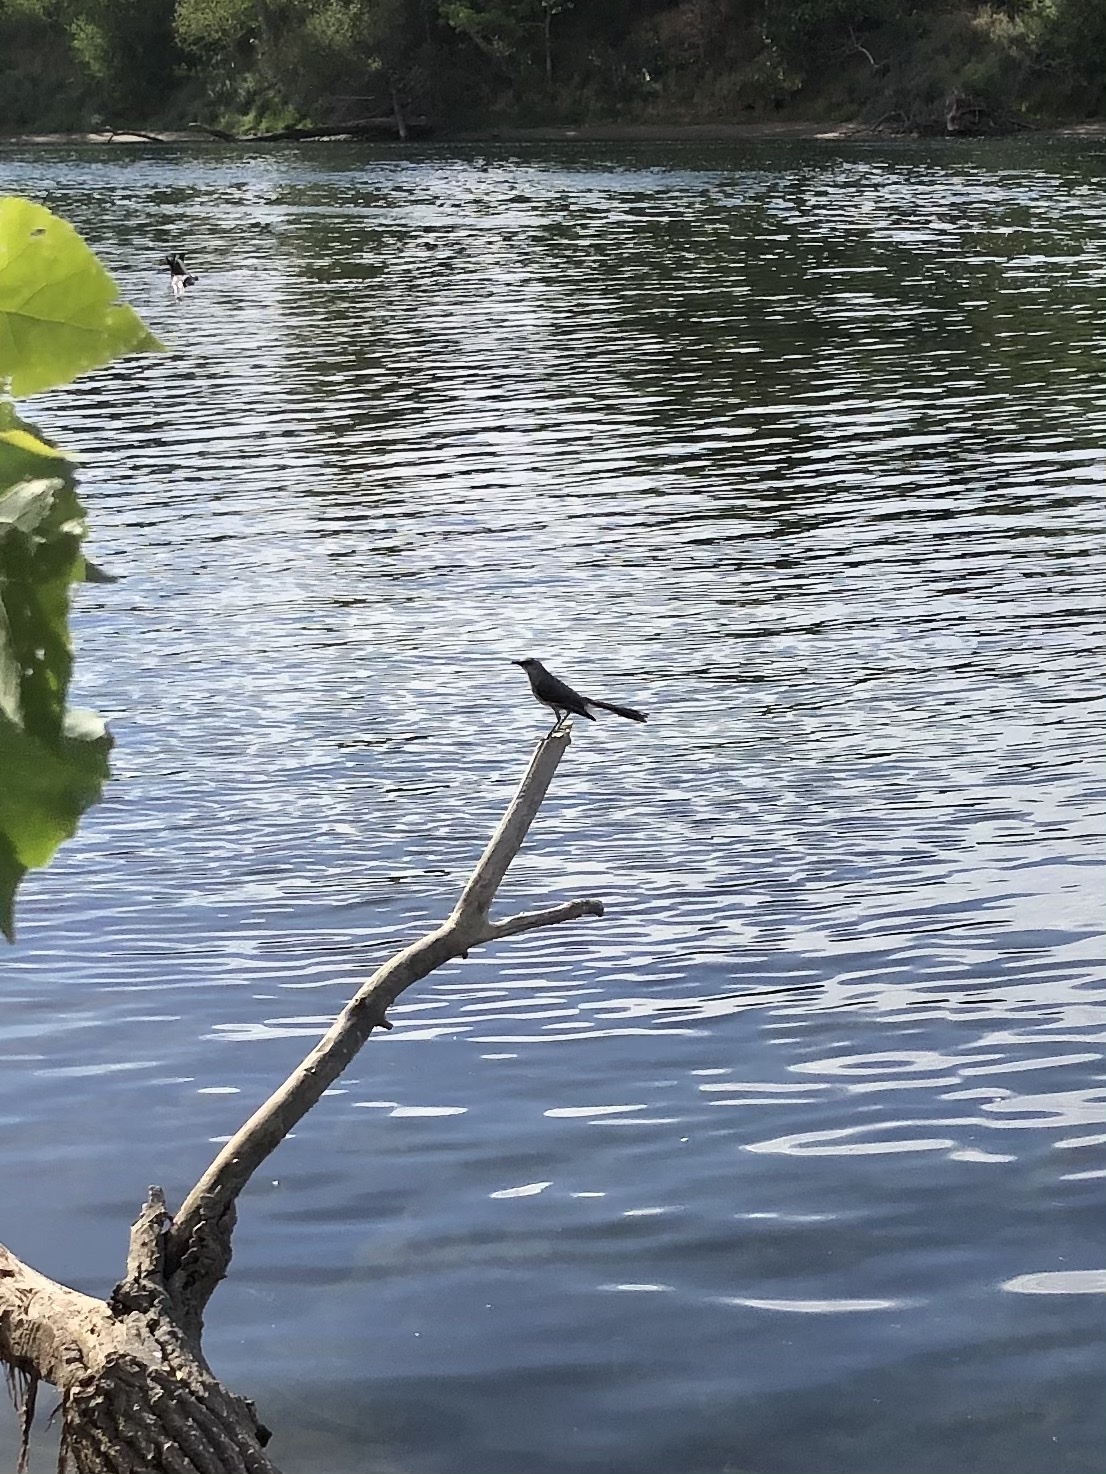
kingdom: Animalia
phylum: Chordata
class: Aves
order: Passeriformes
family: Mimidae
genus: Mimus
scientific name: Mimus polyglottos
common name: Northern mockingbird
